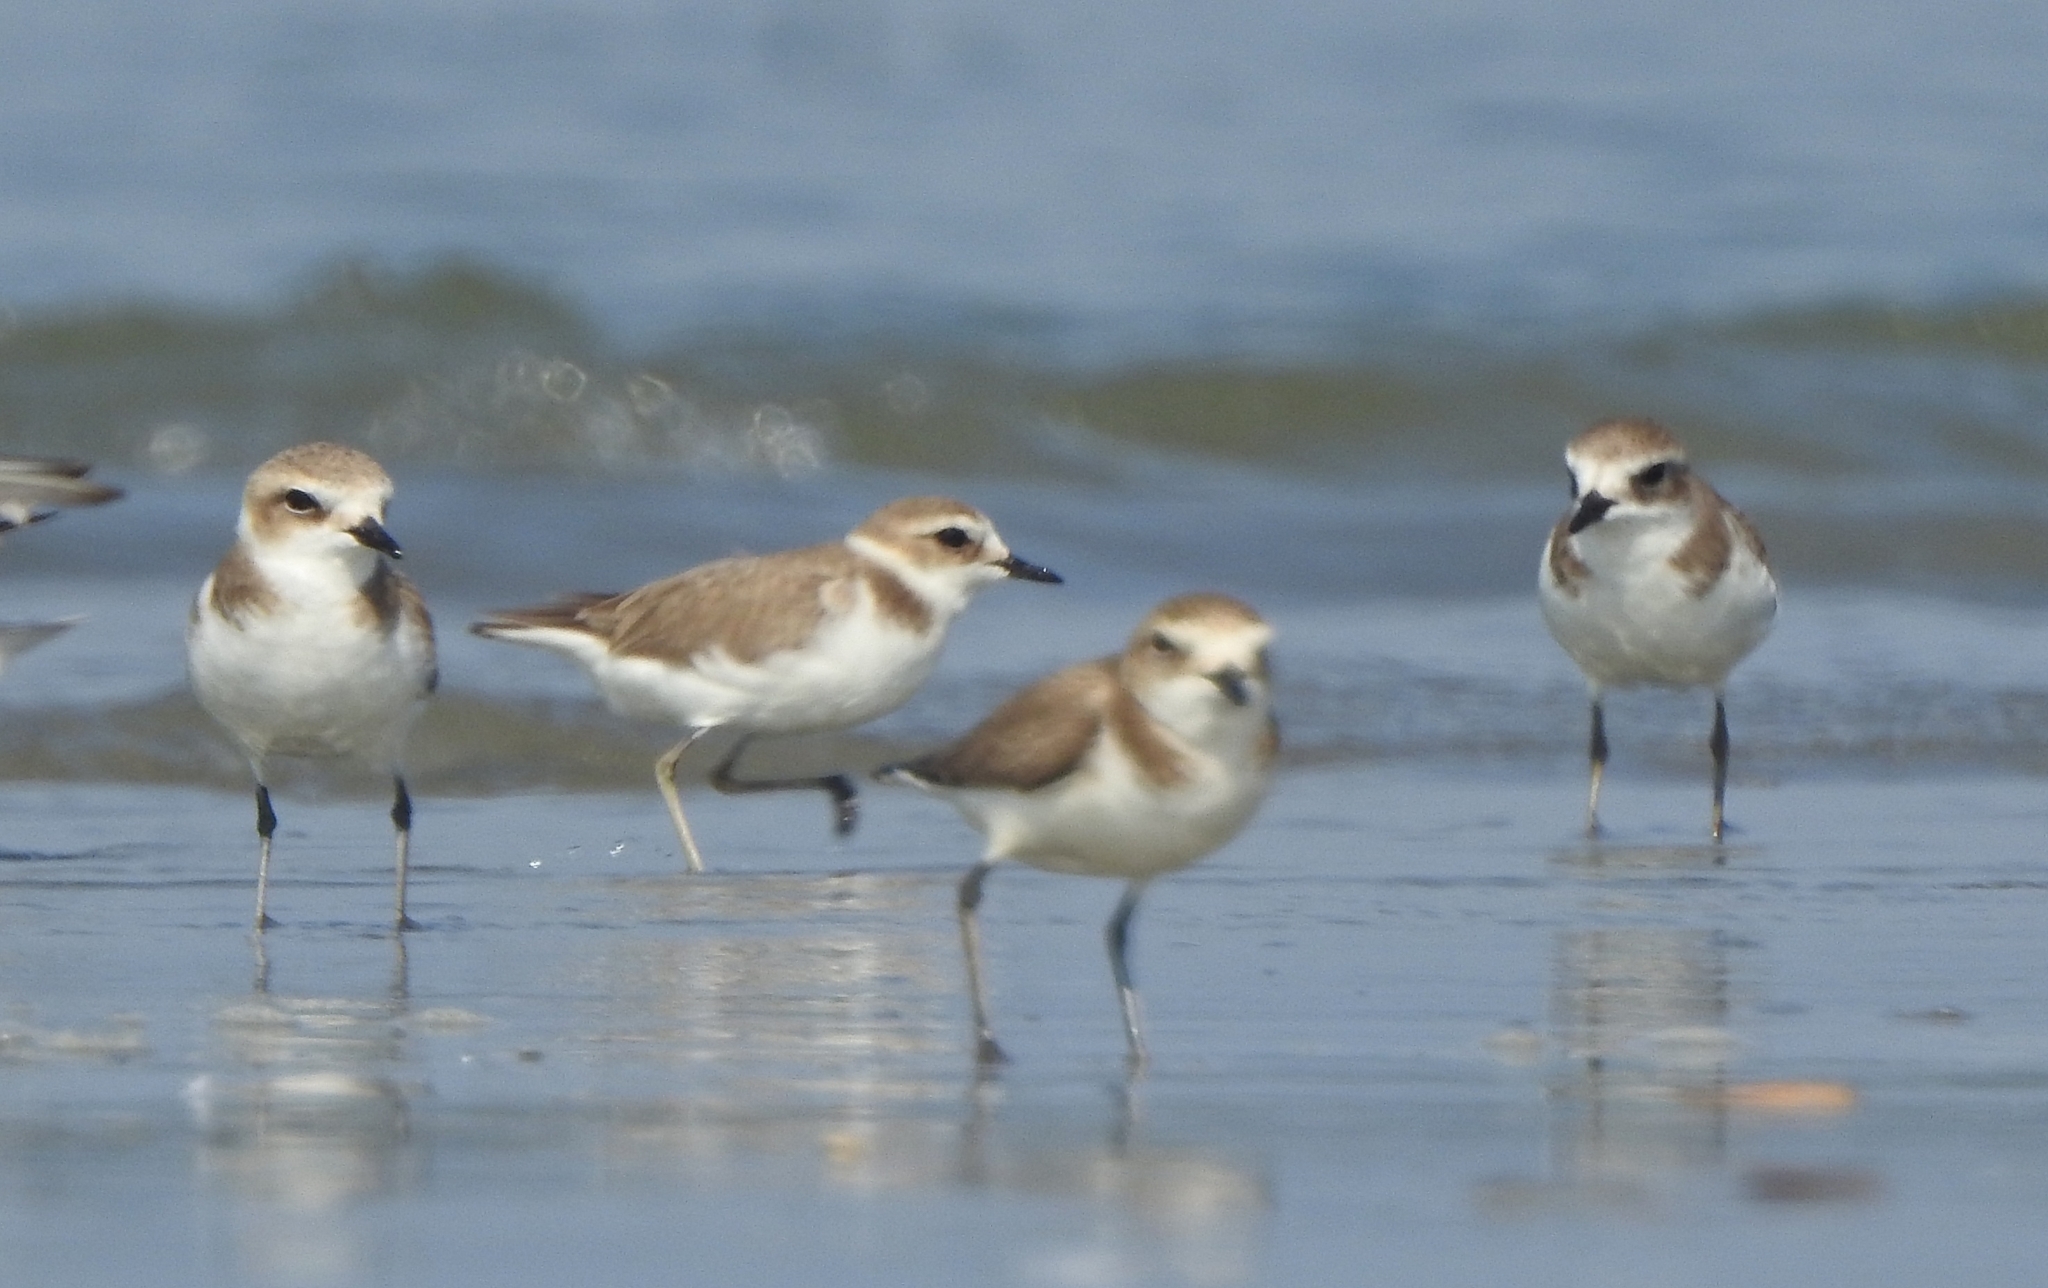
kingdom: Animalia
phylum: Chordata
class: Aves
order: Charadriiformes
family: Charadriidae
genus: Charadrius
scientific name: Charadrius alexandrinus
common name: Kentish plover
